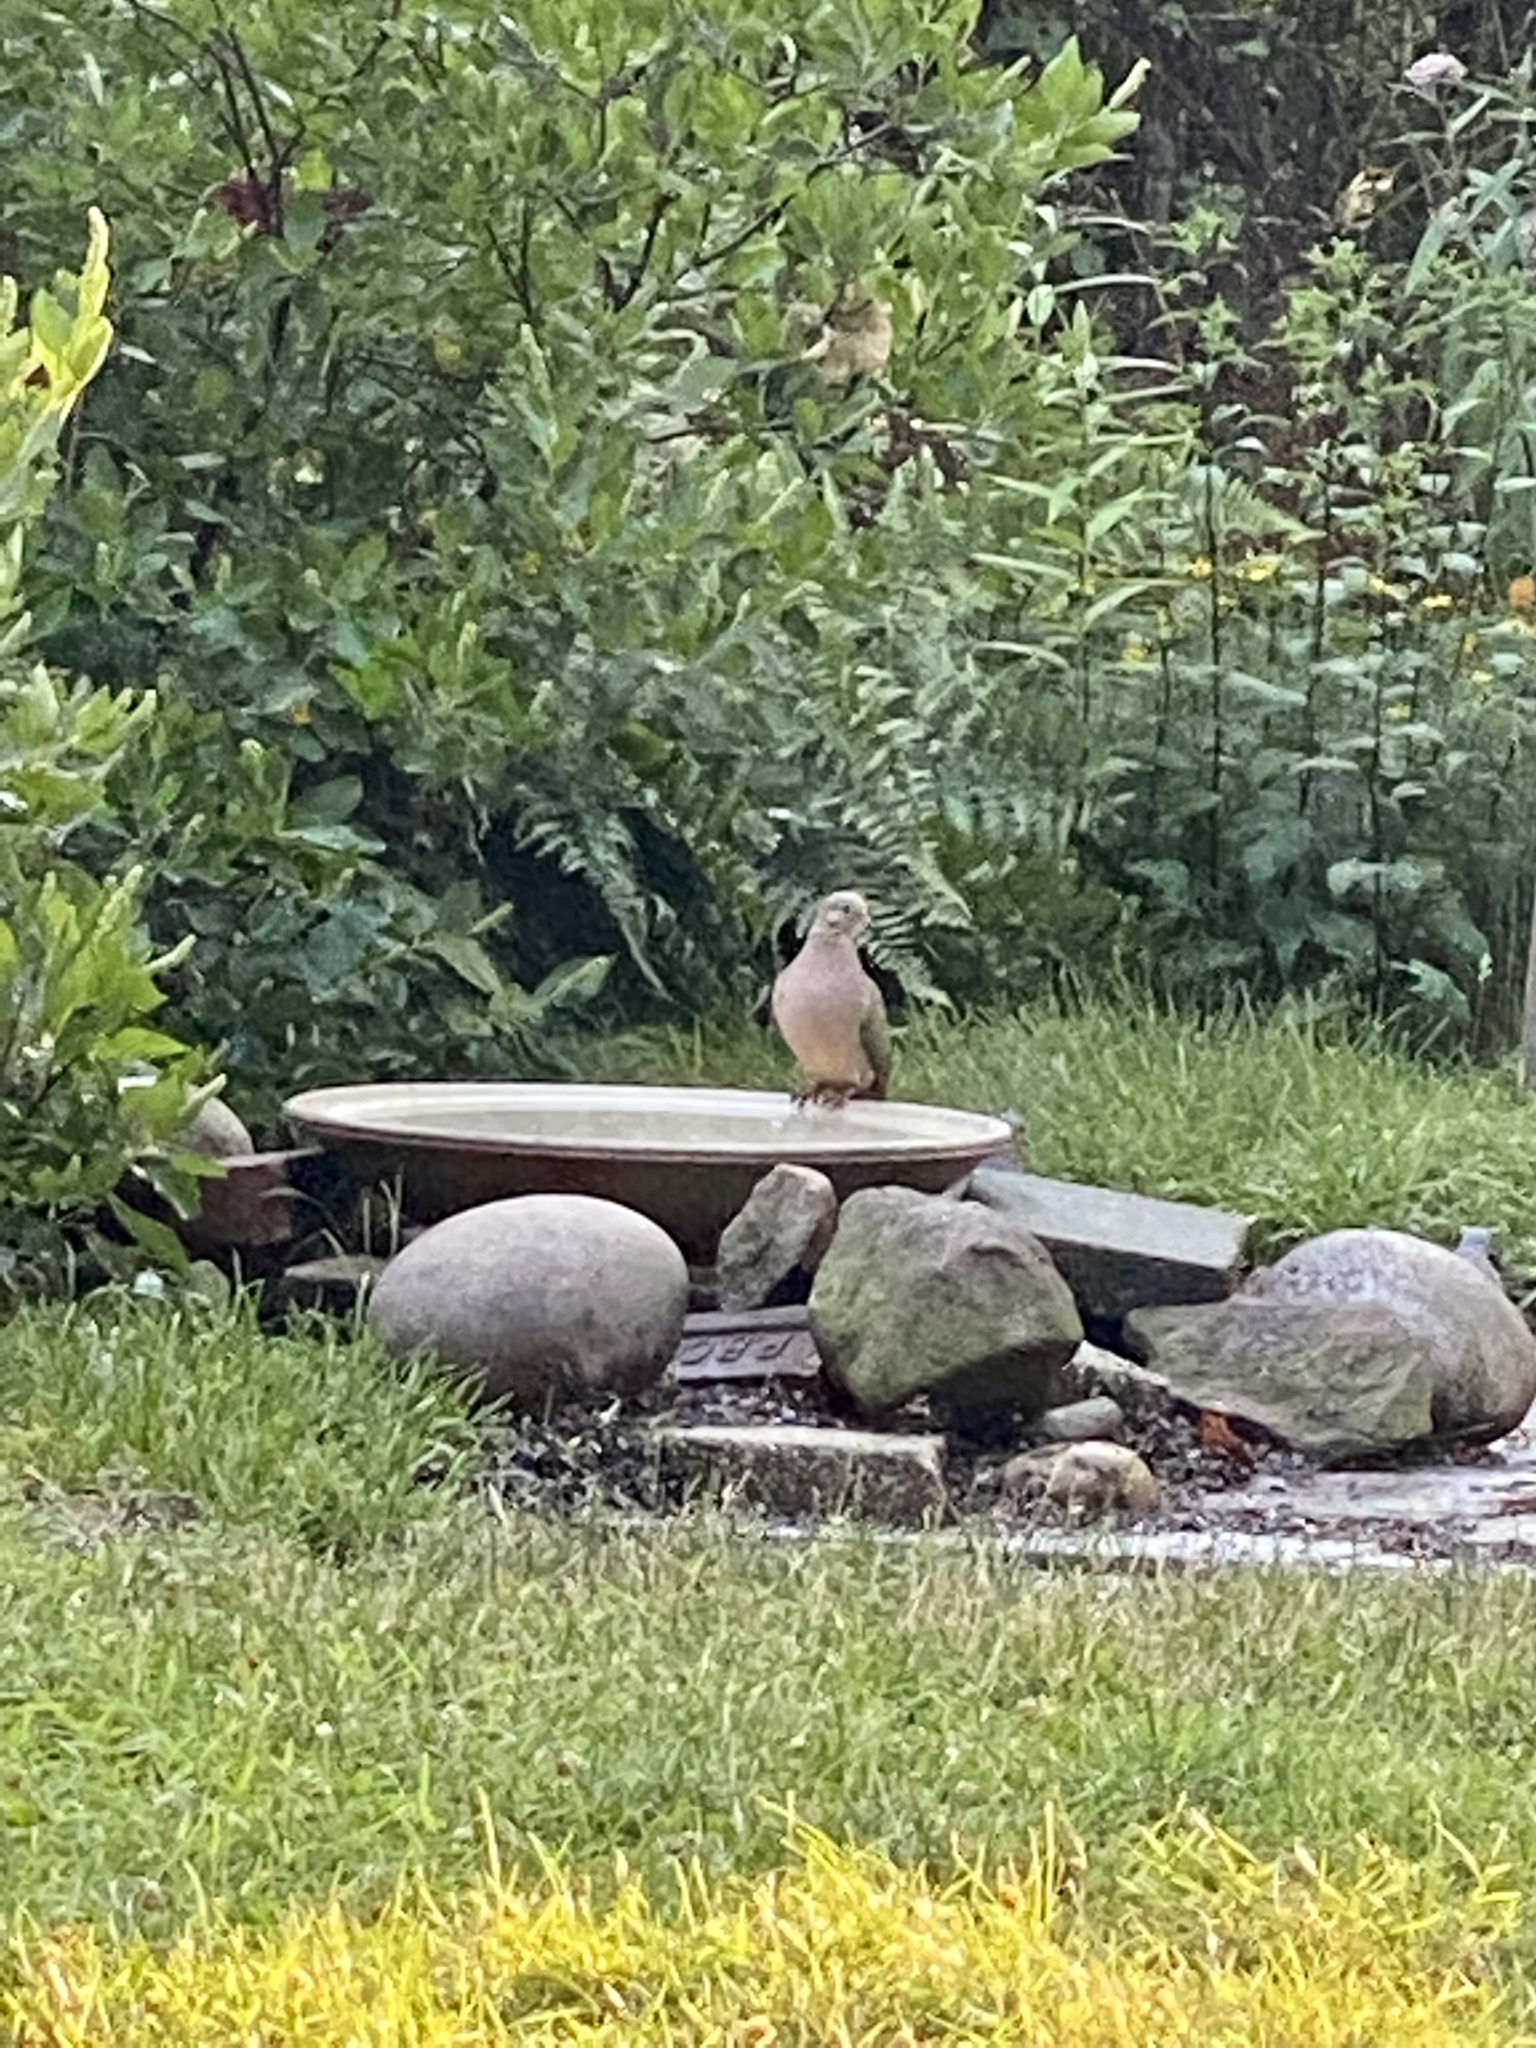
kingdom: Animalia
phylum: Chordata
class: Aves
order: Columbiformes
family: Columbidae
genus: Zenaida
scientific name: Zenaida macroura
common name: Mourning dove
